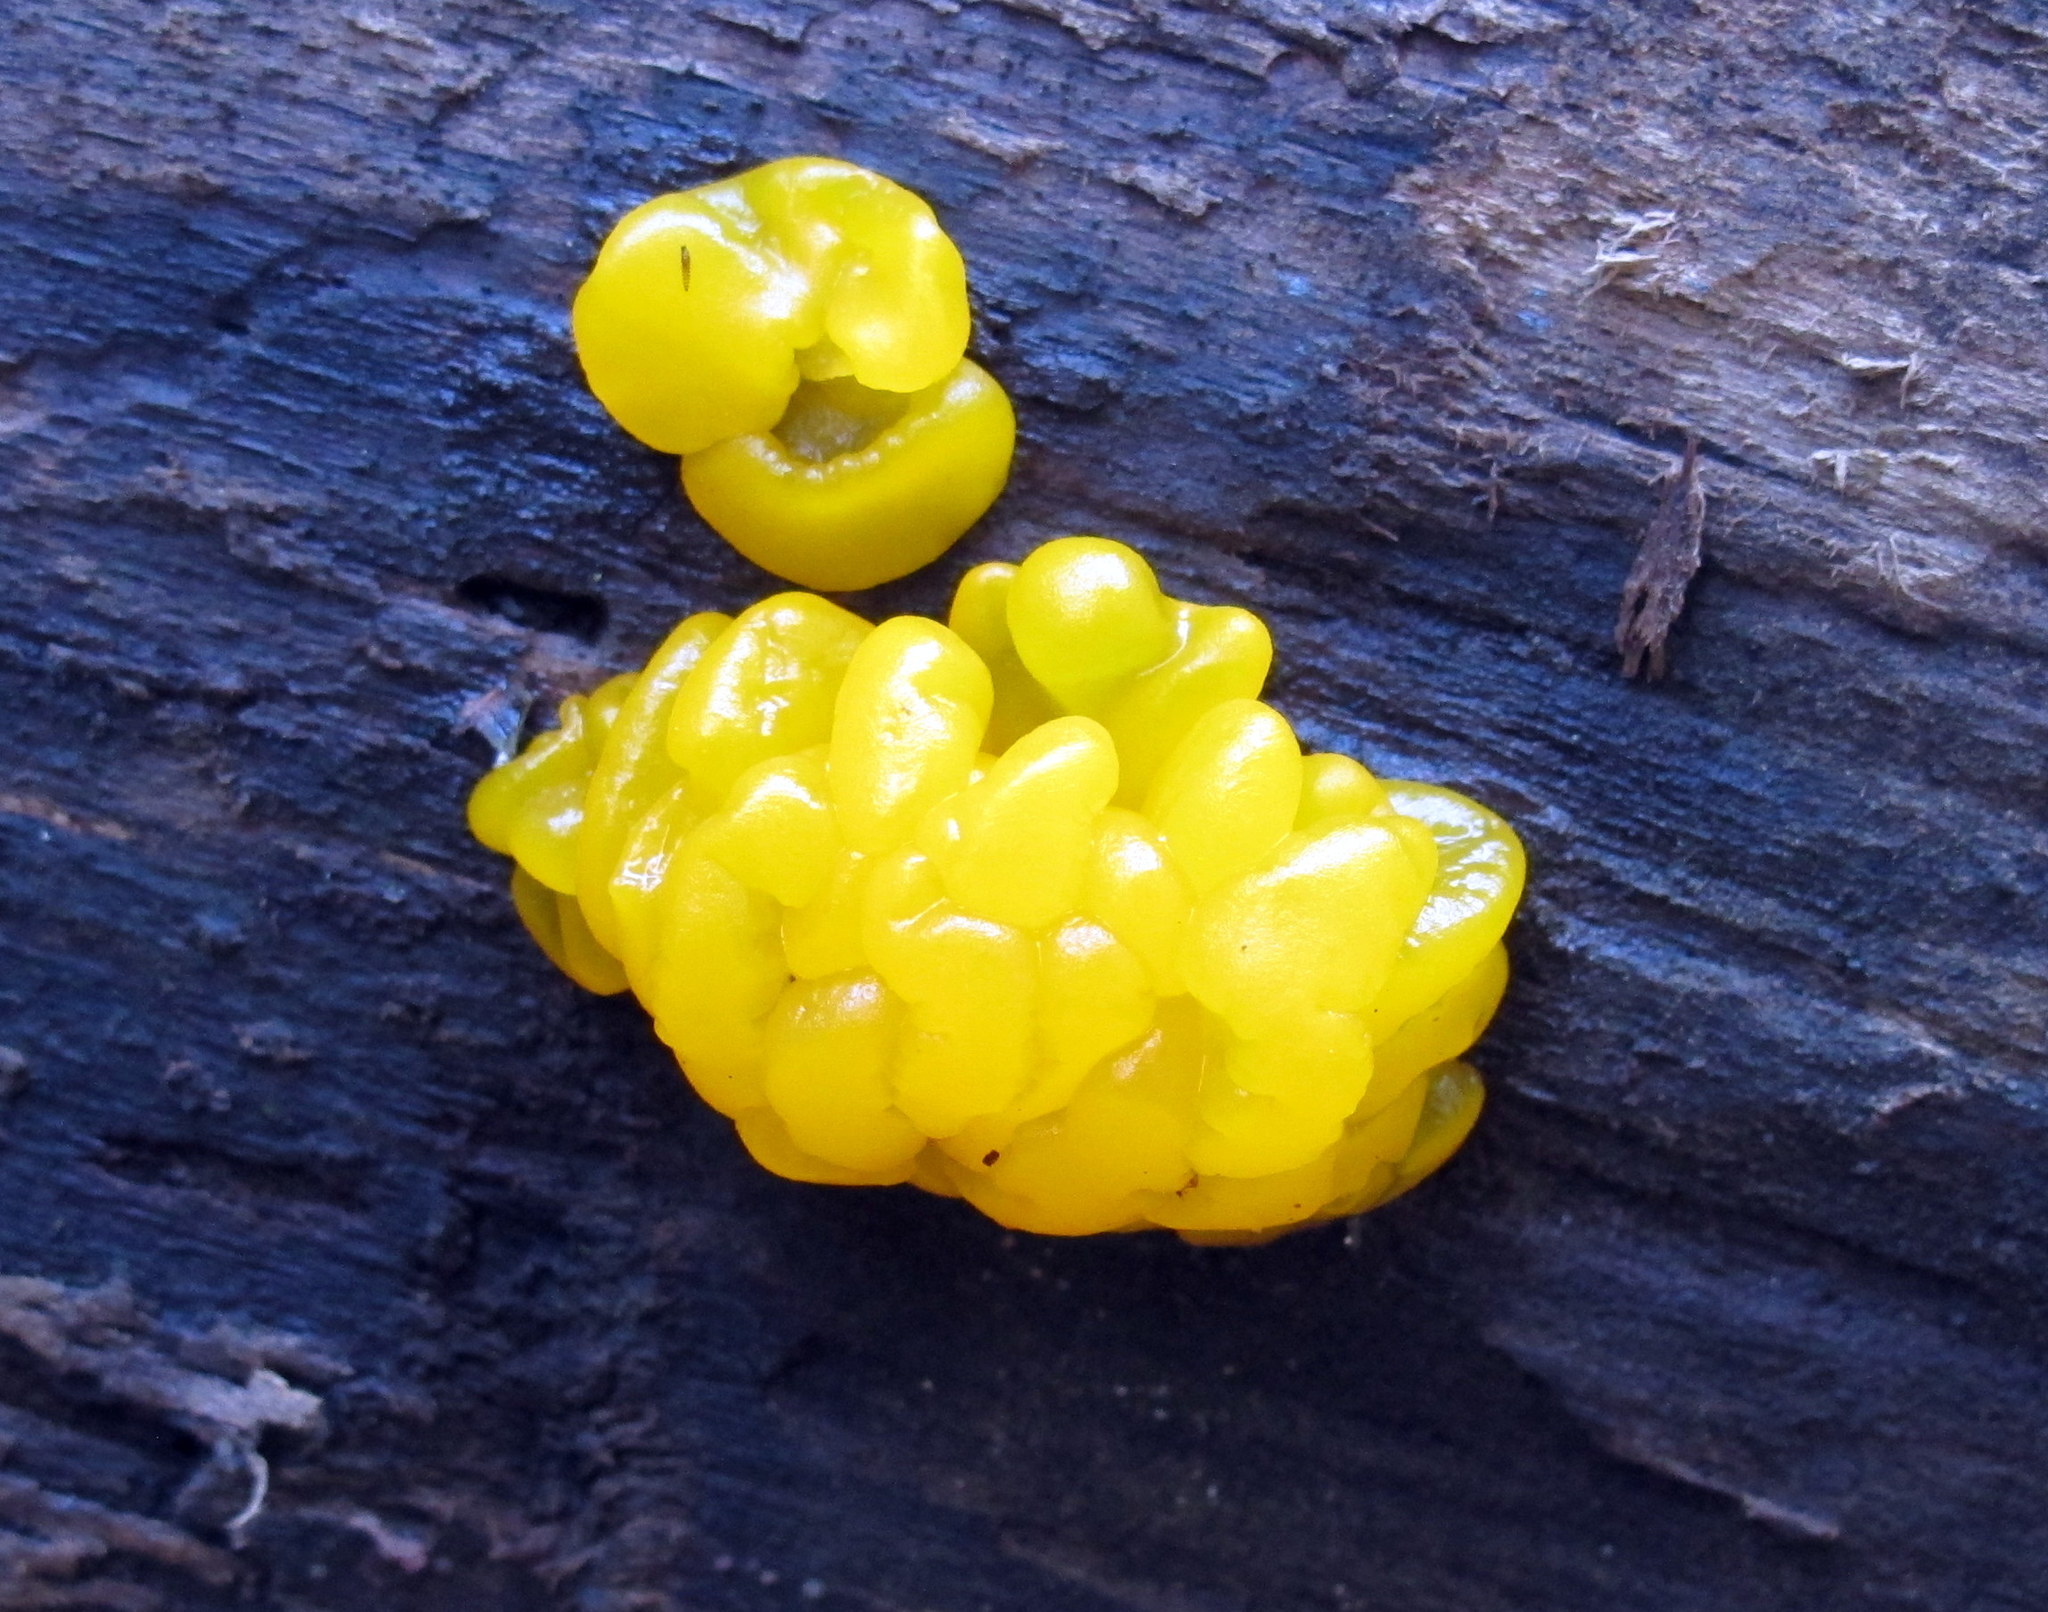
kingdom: Fungi
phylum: Basidiomycota
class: Tremellomycetes
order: Tremellales
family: Tremellaceae
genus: Tremella
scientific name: Tremella mesenterica
